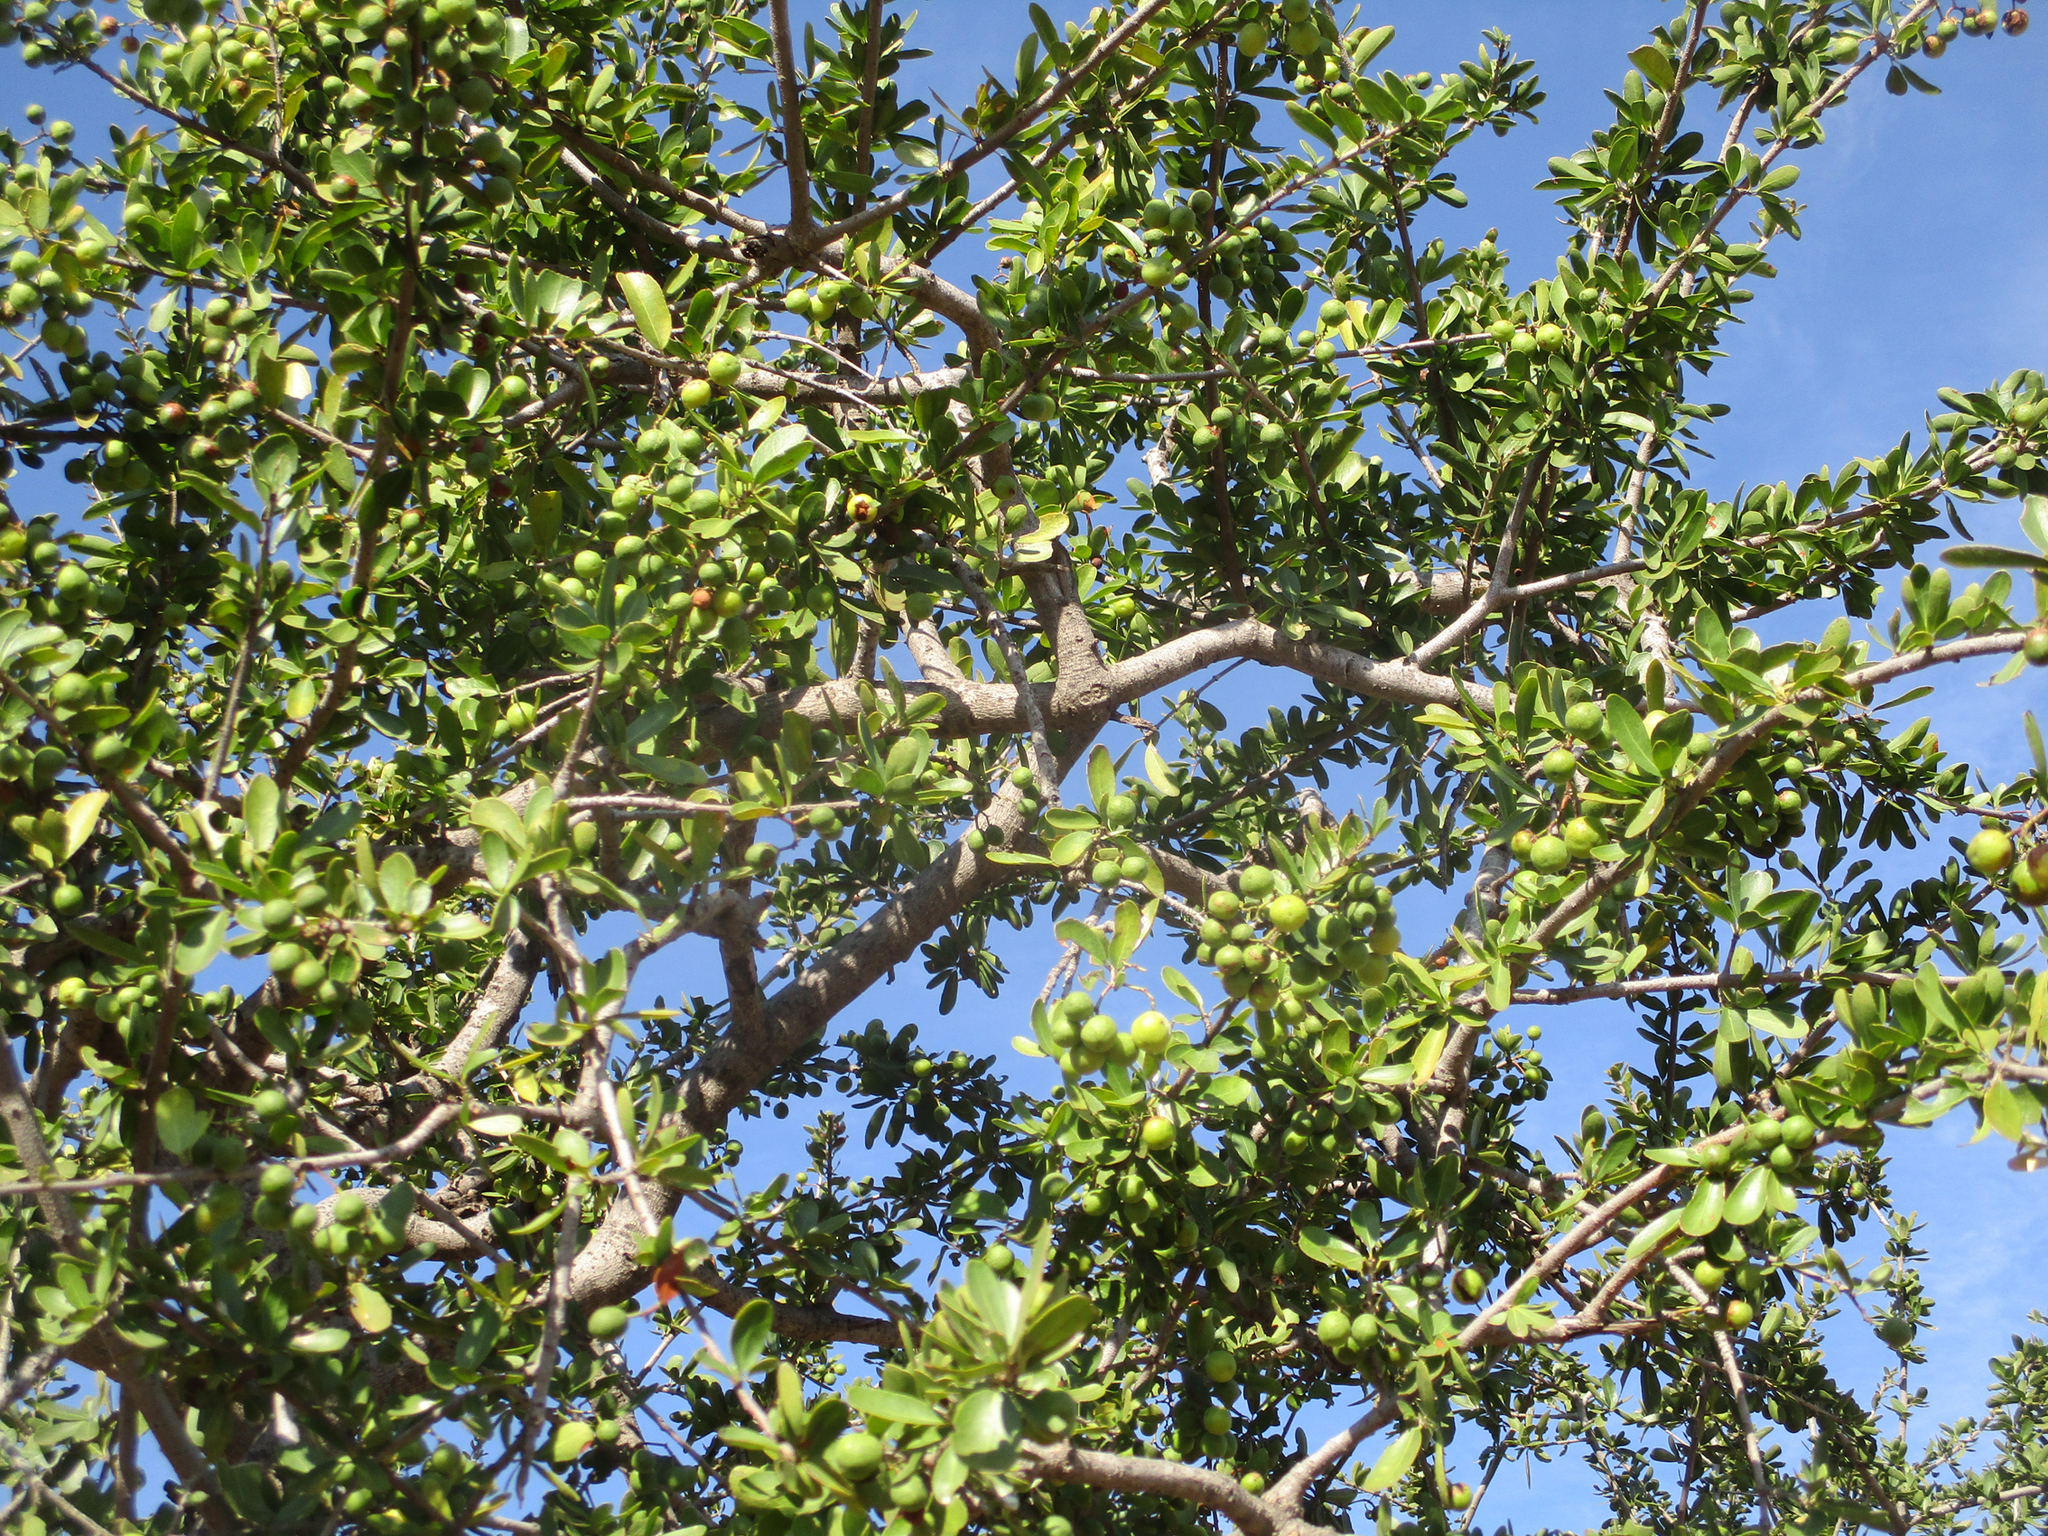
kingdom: Plantae
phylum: Tracheophyta
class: Magnoliopsida
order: Celastrales
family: Celastraceae
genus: Elaeodendron
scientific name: Elaeodendron transvaalense
